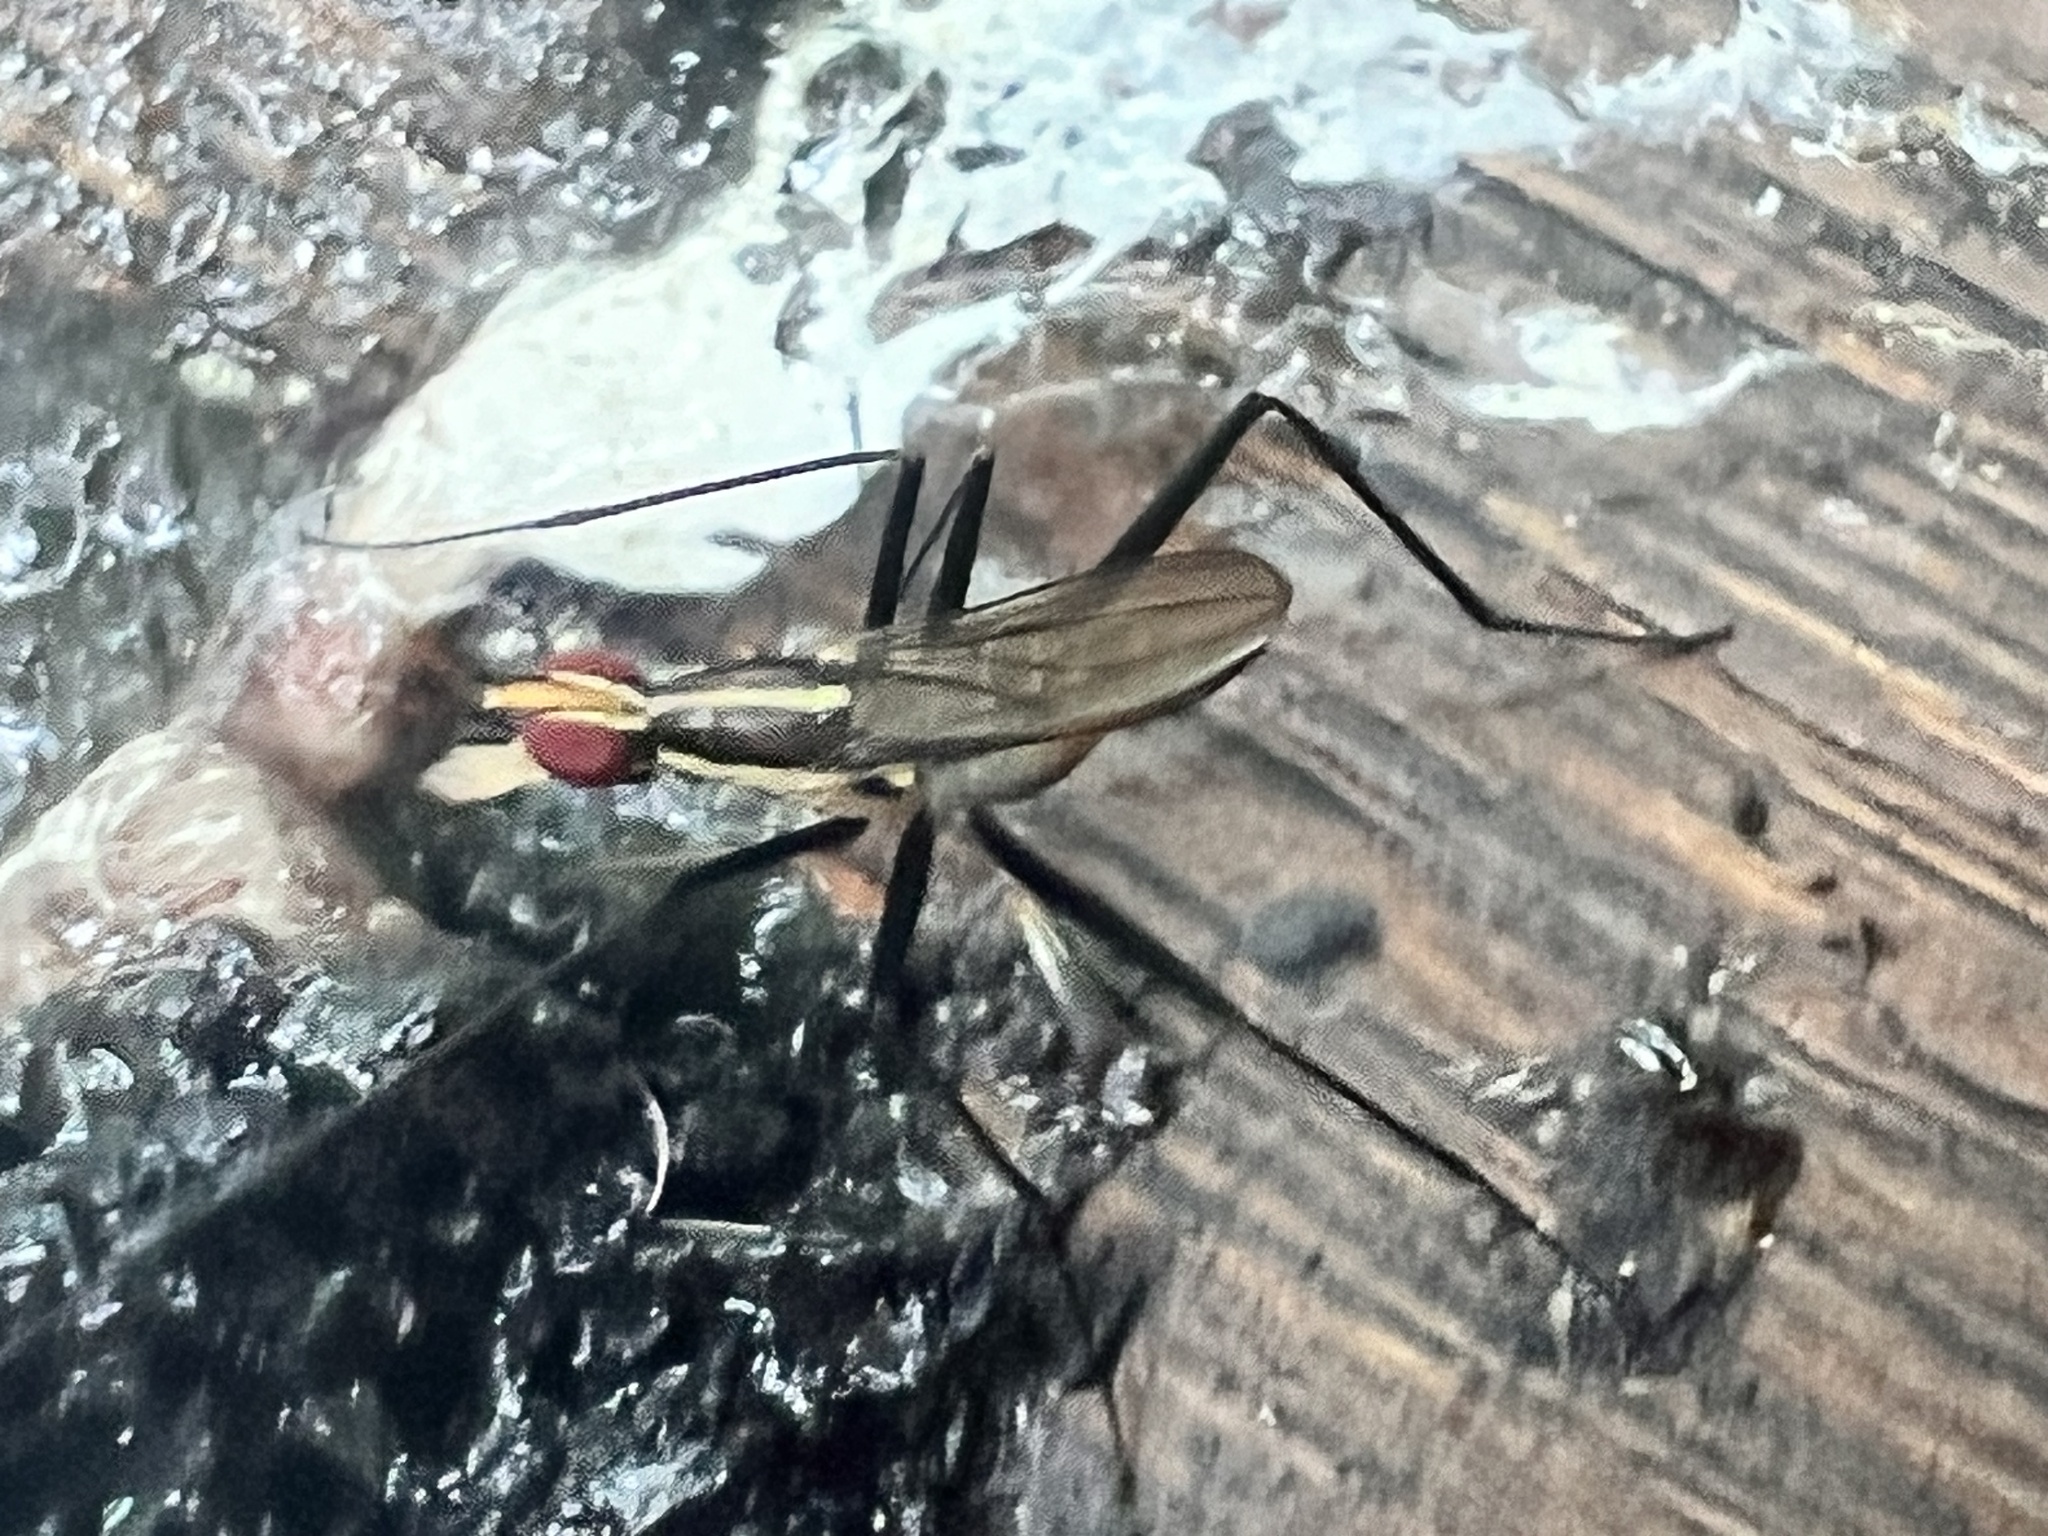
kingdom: Animalia
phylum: Arthropoda
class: Insecta
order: Diptera
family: Neriidae
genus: Telostylinus
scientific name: Telostylinus lineolatus
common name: Banana stalk fly
